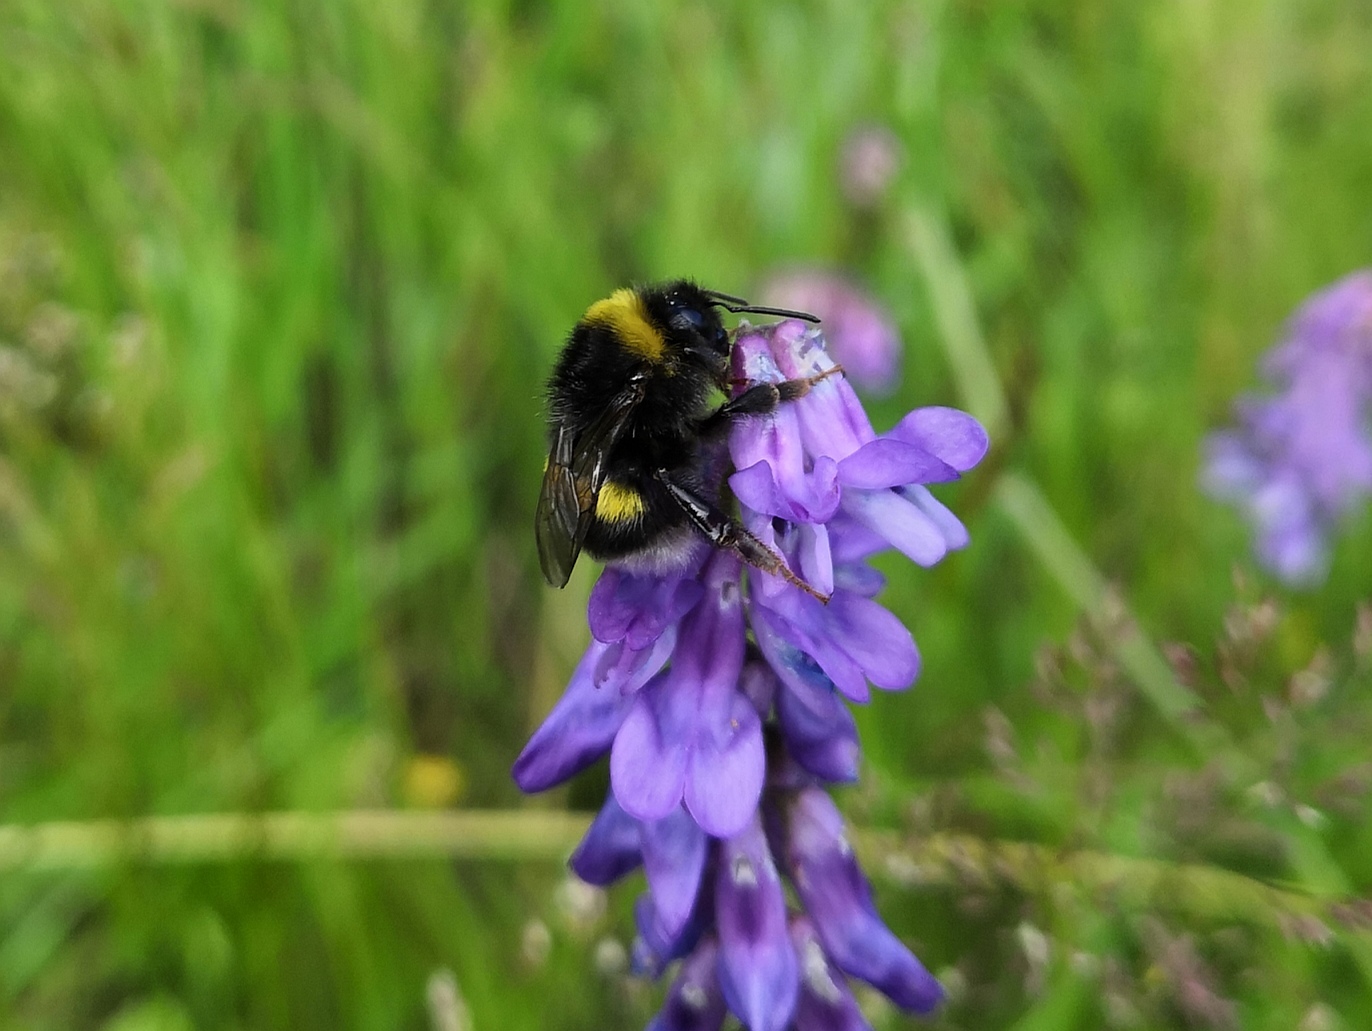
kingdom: Animalia
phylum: Arthropoda
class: Insecta
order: Hymenoptera
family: Apidae
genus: Bombus
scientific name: Bombus terrestris
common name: Buff-tailed bumblebee
